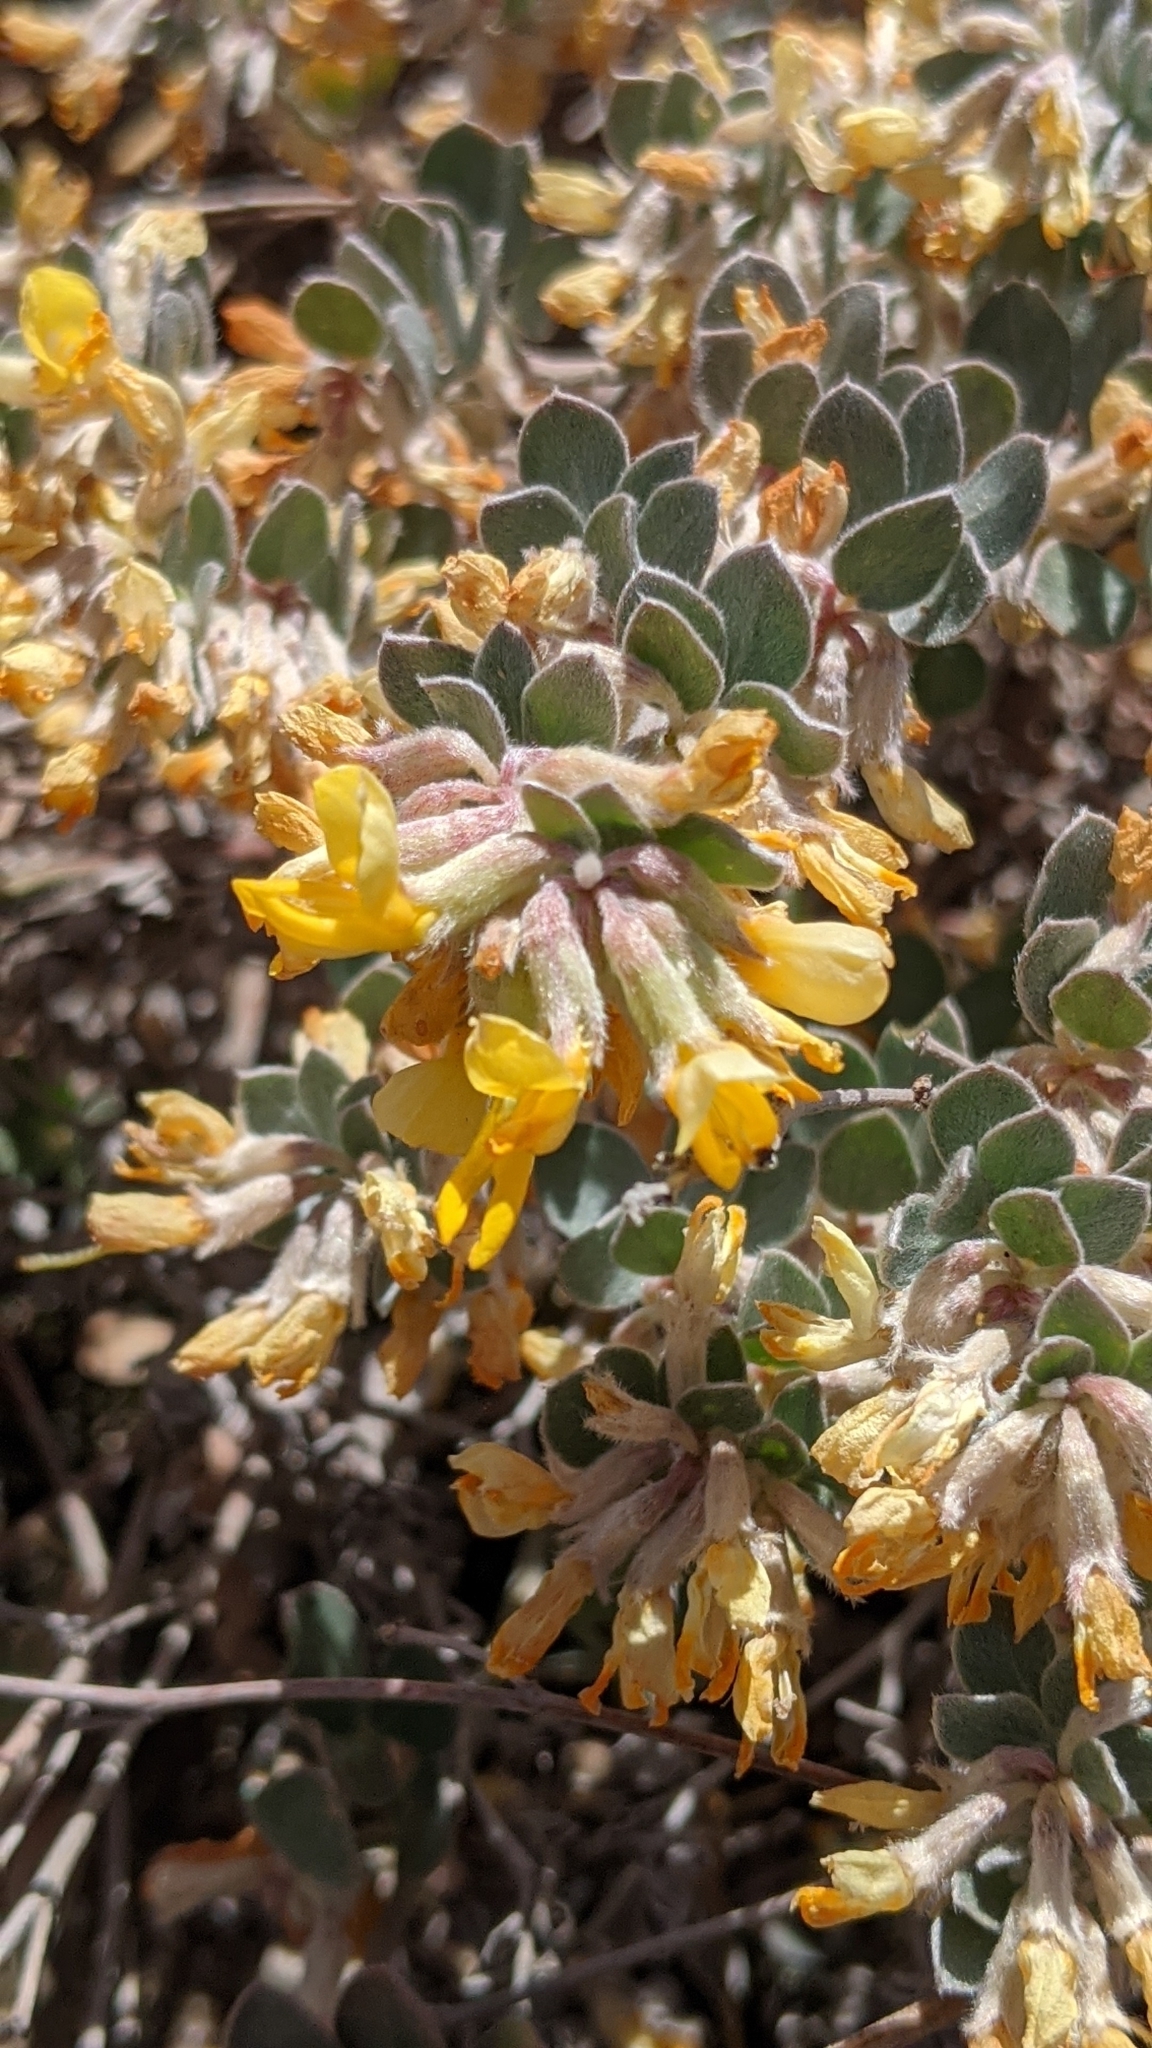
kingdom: Plantae
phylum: Tracheophyta
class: Magnoliopsida
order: Fabales
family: Fabaceae
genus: Acmispon
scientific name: Acmispon argophyllus
